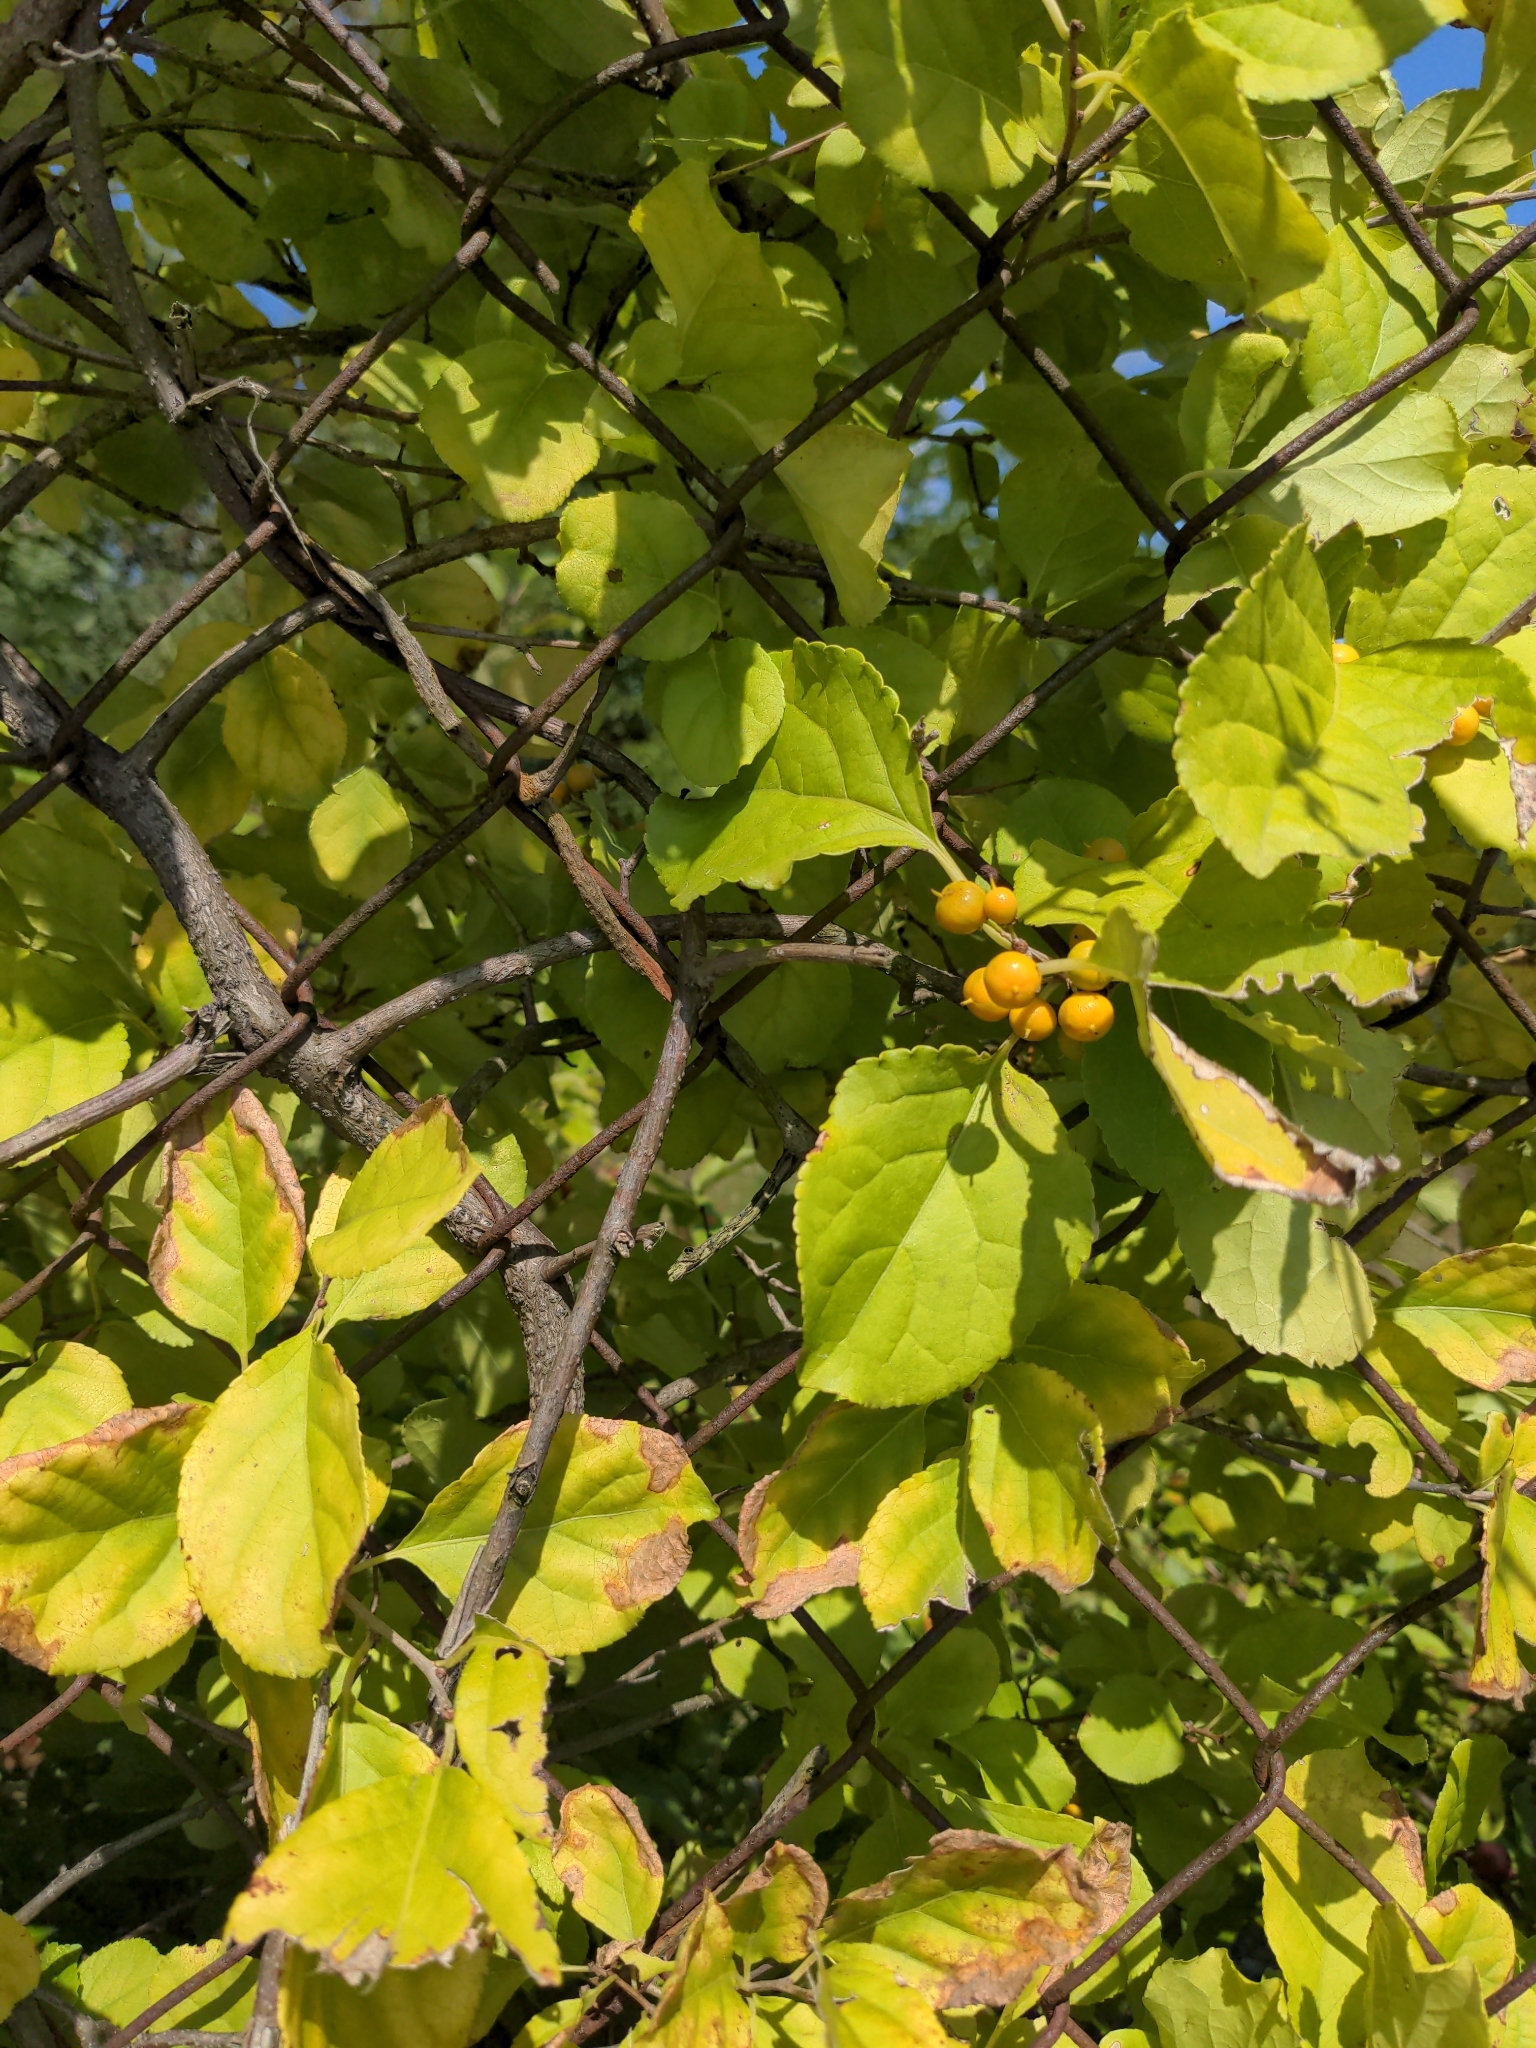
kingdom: Plantae
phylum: Tracheophyta
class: Magnoliopsida
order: Celastrales
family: Celastraceae
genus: Celastrus
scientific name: Celastrus orbiculatus
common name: Oriental bittersweet
